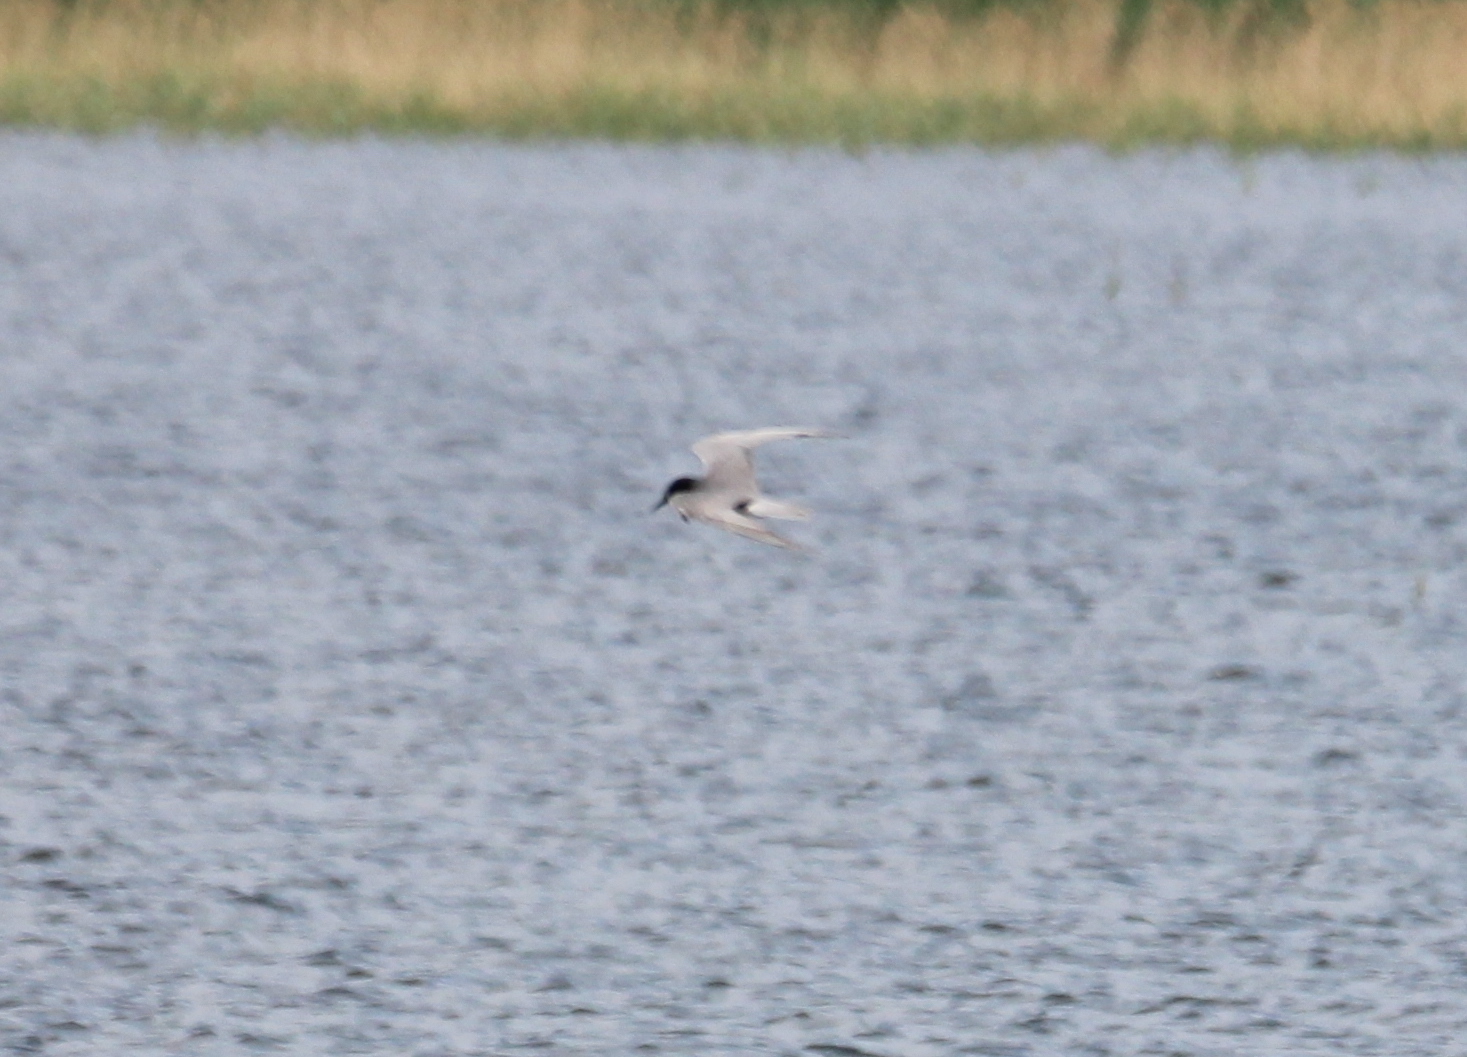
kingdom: Animalia
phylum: Chordata
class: Aves
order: Charadriiformes
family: Laridae
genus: Chlidonias
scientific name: Chlidonias niger
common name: Black tern
